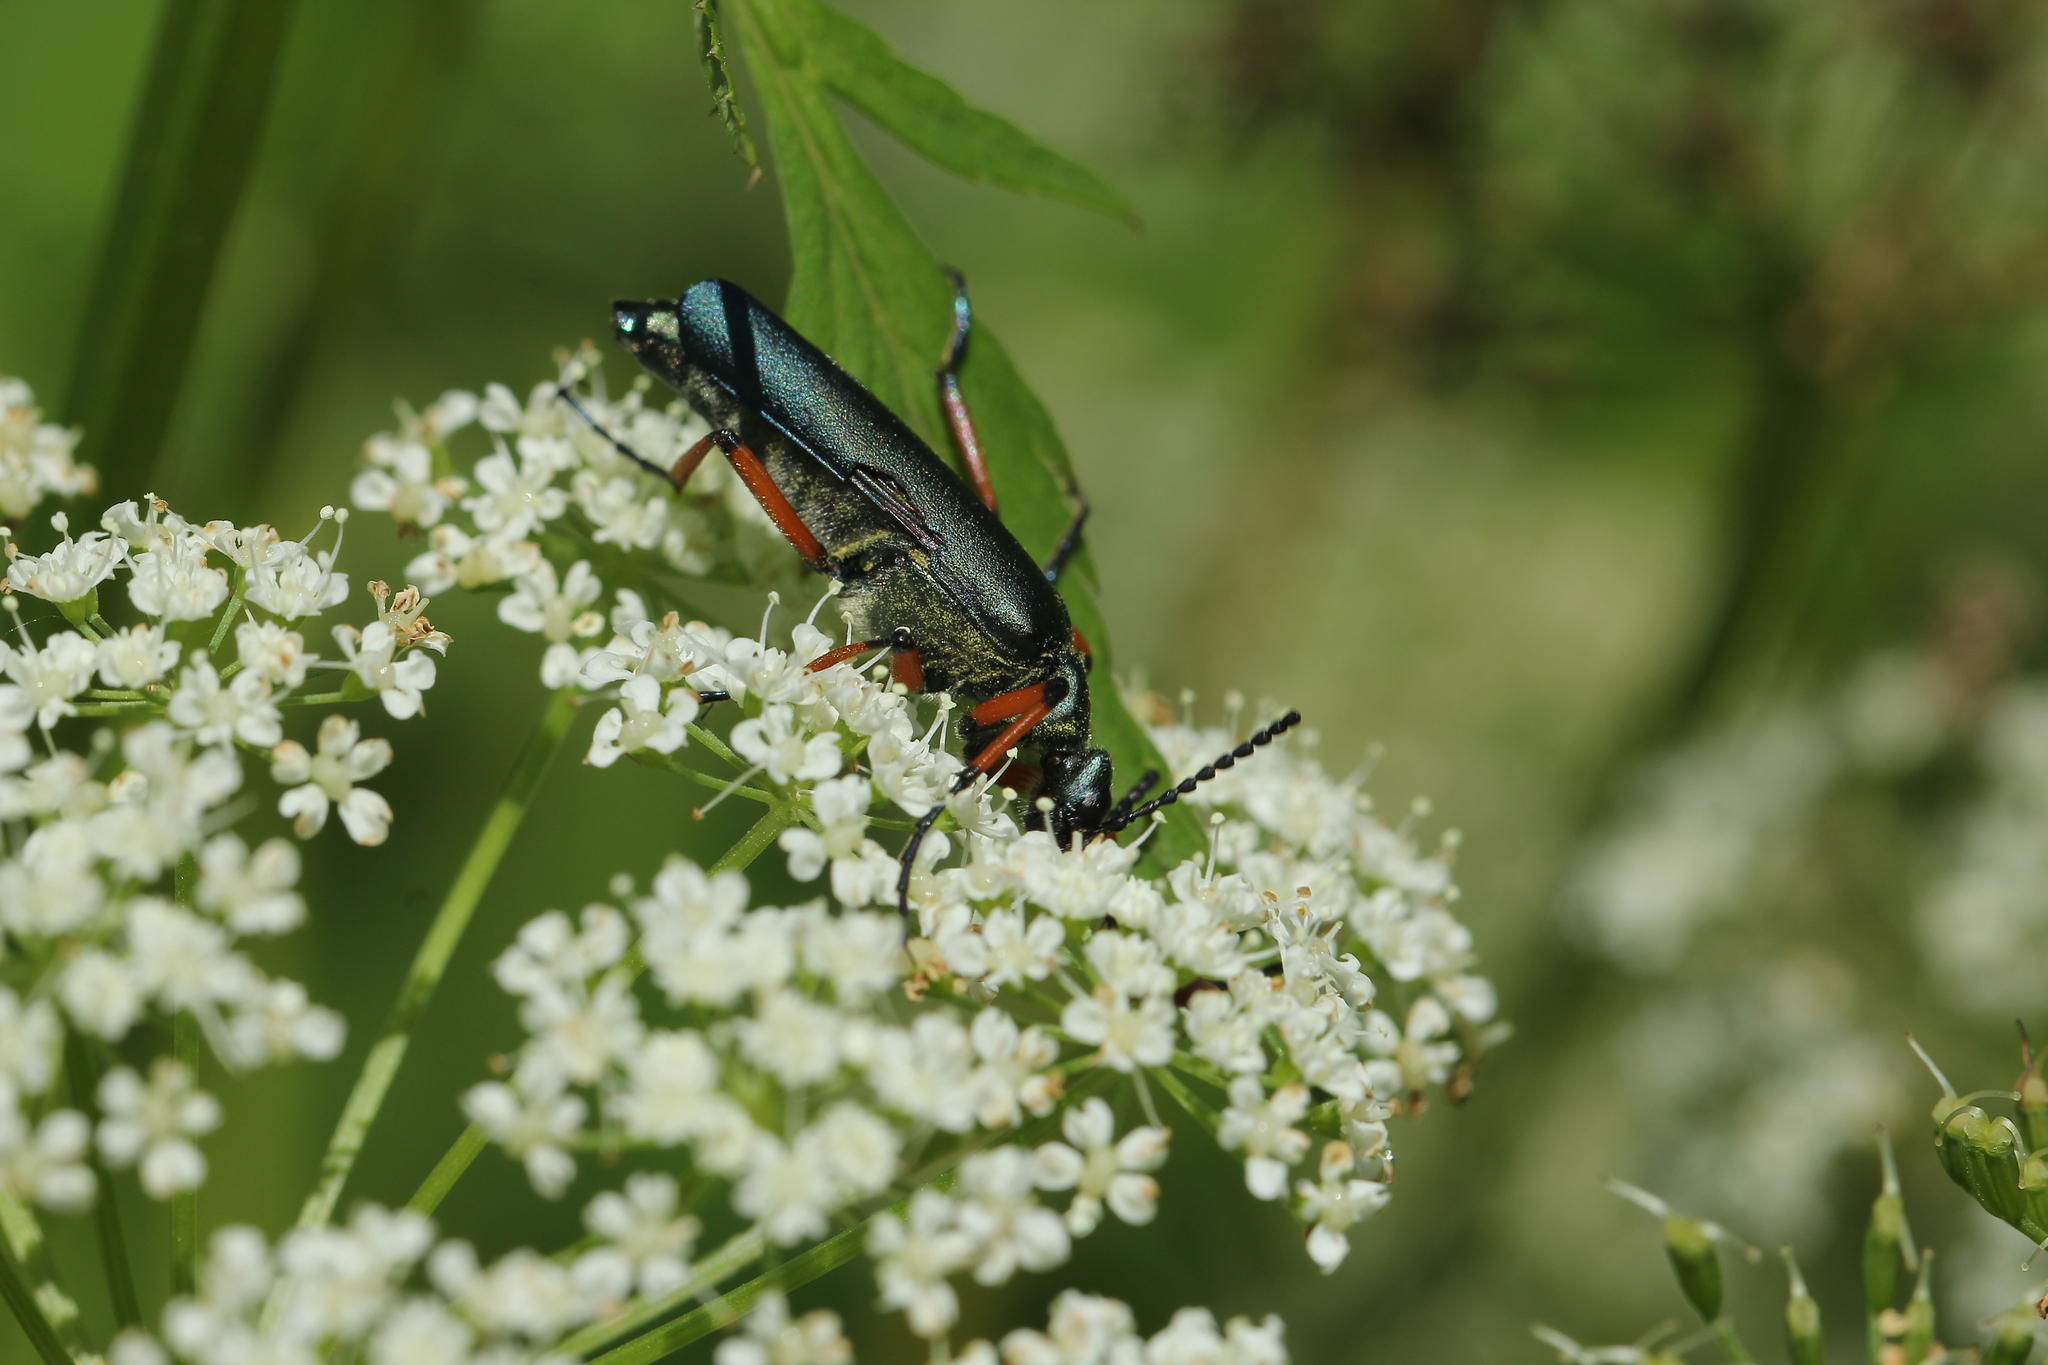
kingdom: Animalia
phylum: Arthropoda
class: Insecta
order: Coleoptera
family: Meloidae
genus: Lytta
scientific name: Lytta sayi
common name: Say's blister beetle
